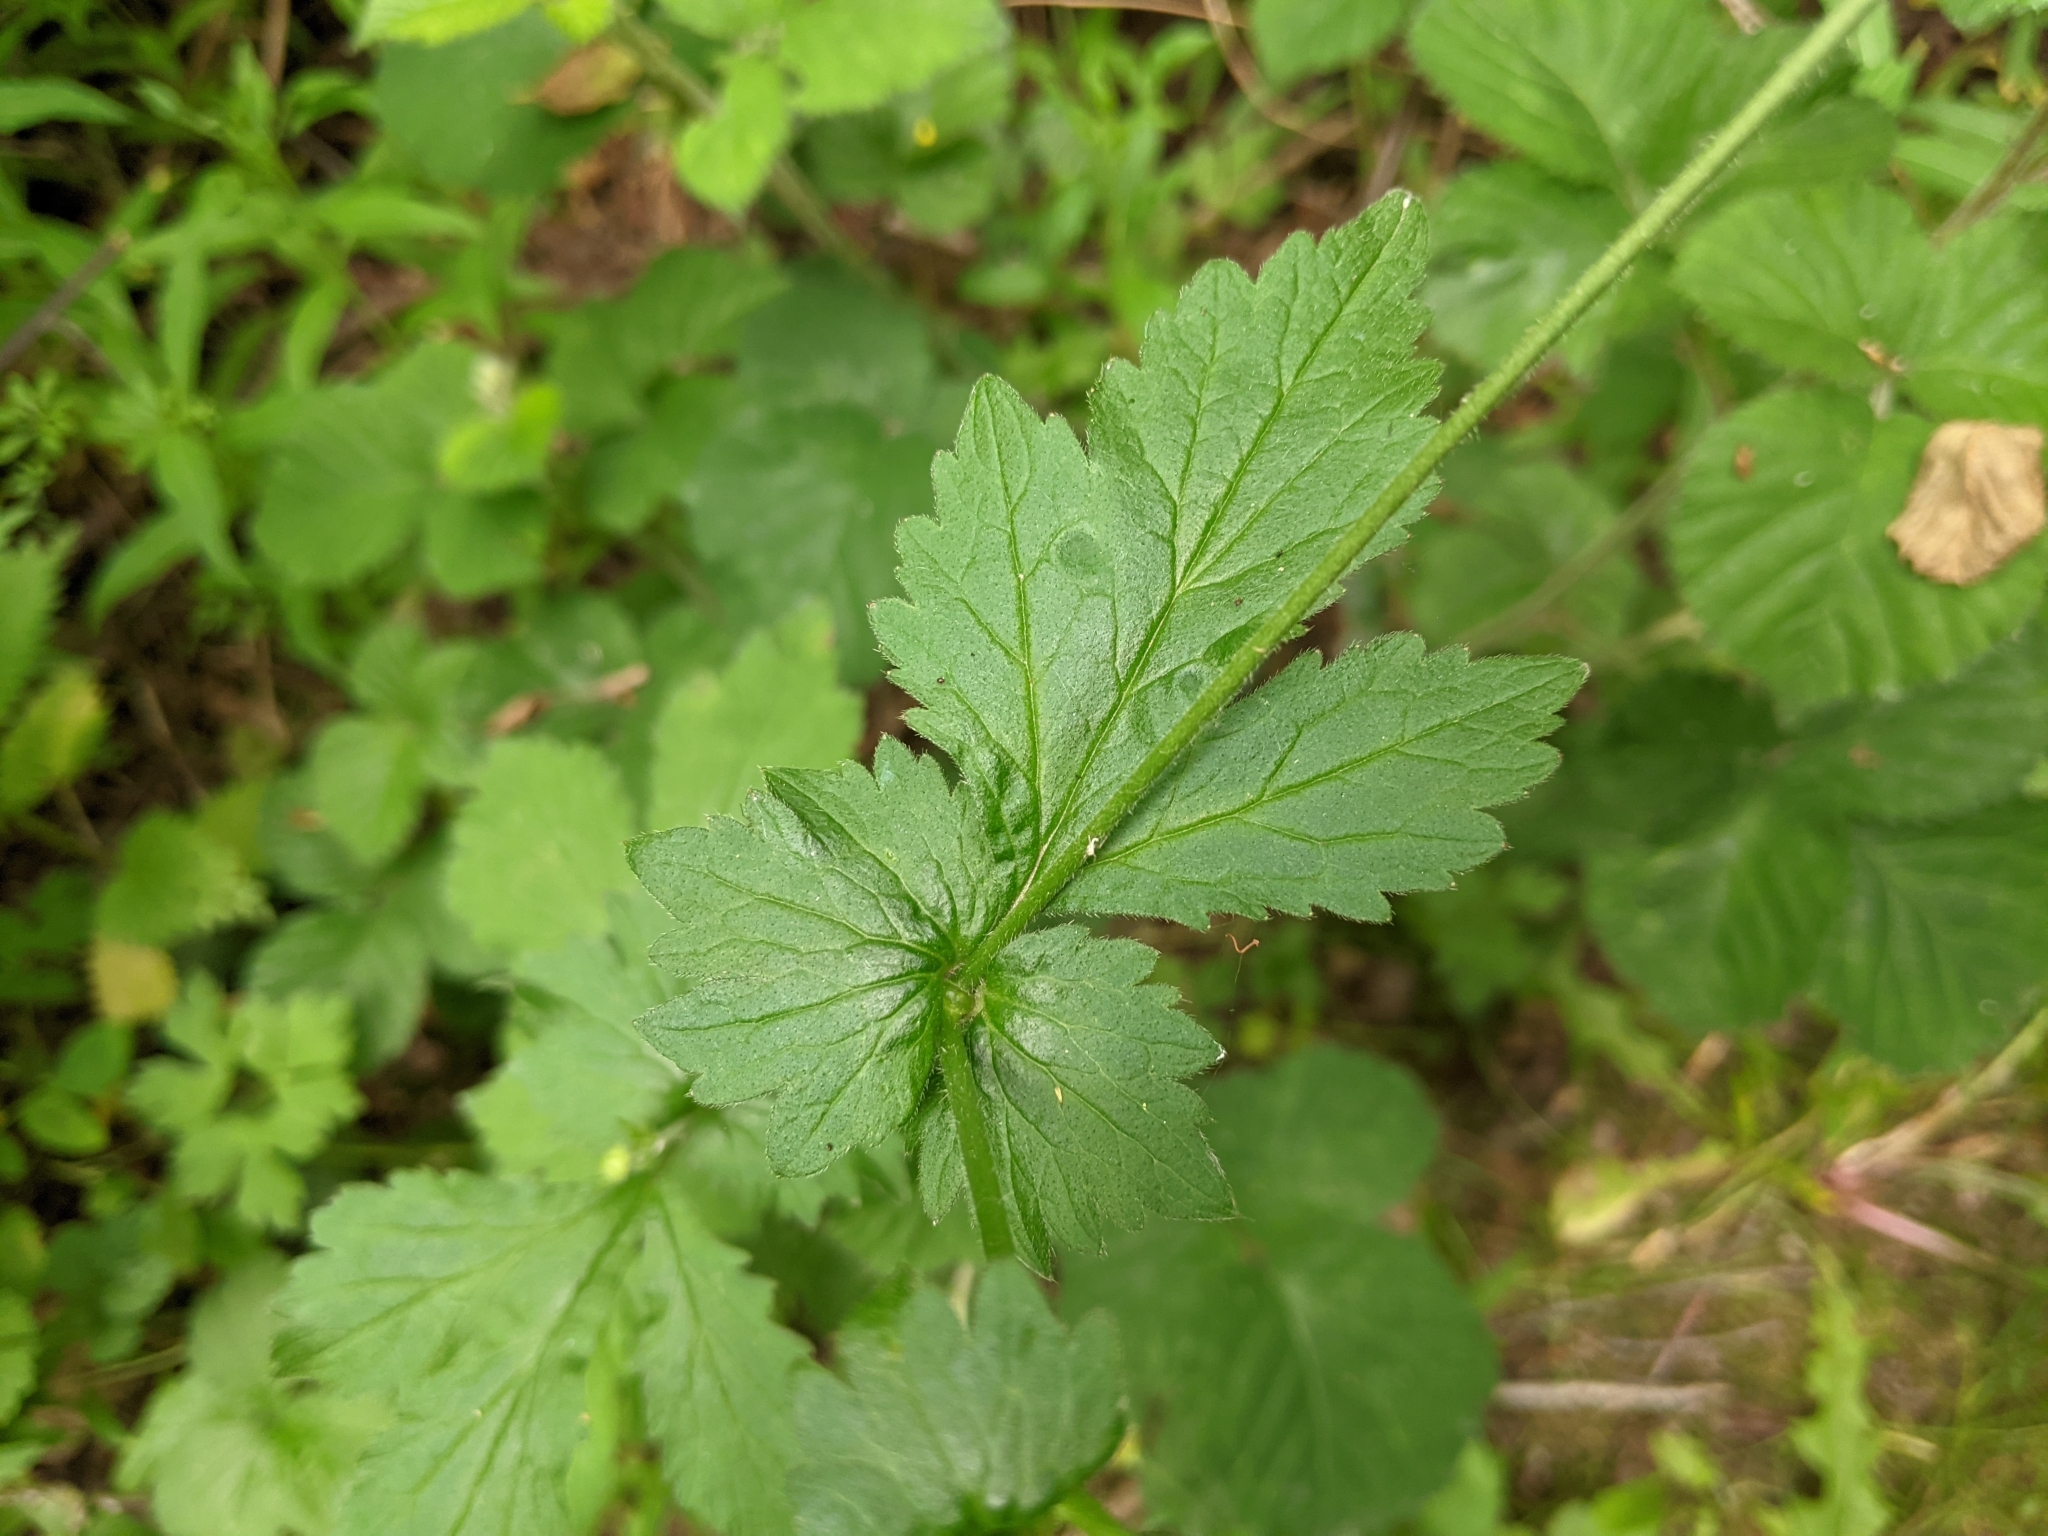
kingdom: Plantae
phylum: Tracheophyta
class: Magnoliopsida
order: Rosales
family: Rosaceae
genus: Geum
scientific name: Geum urbanum
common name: Wood avens
